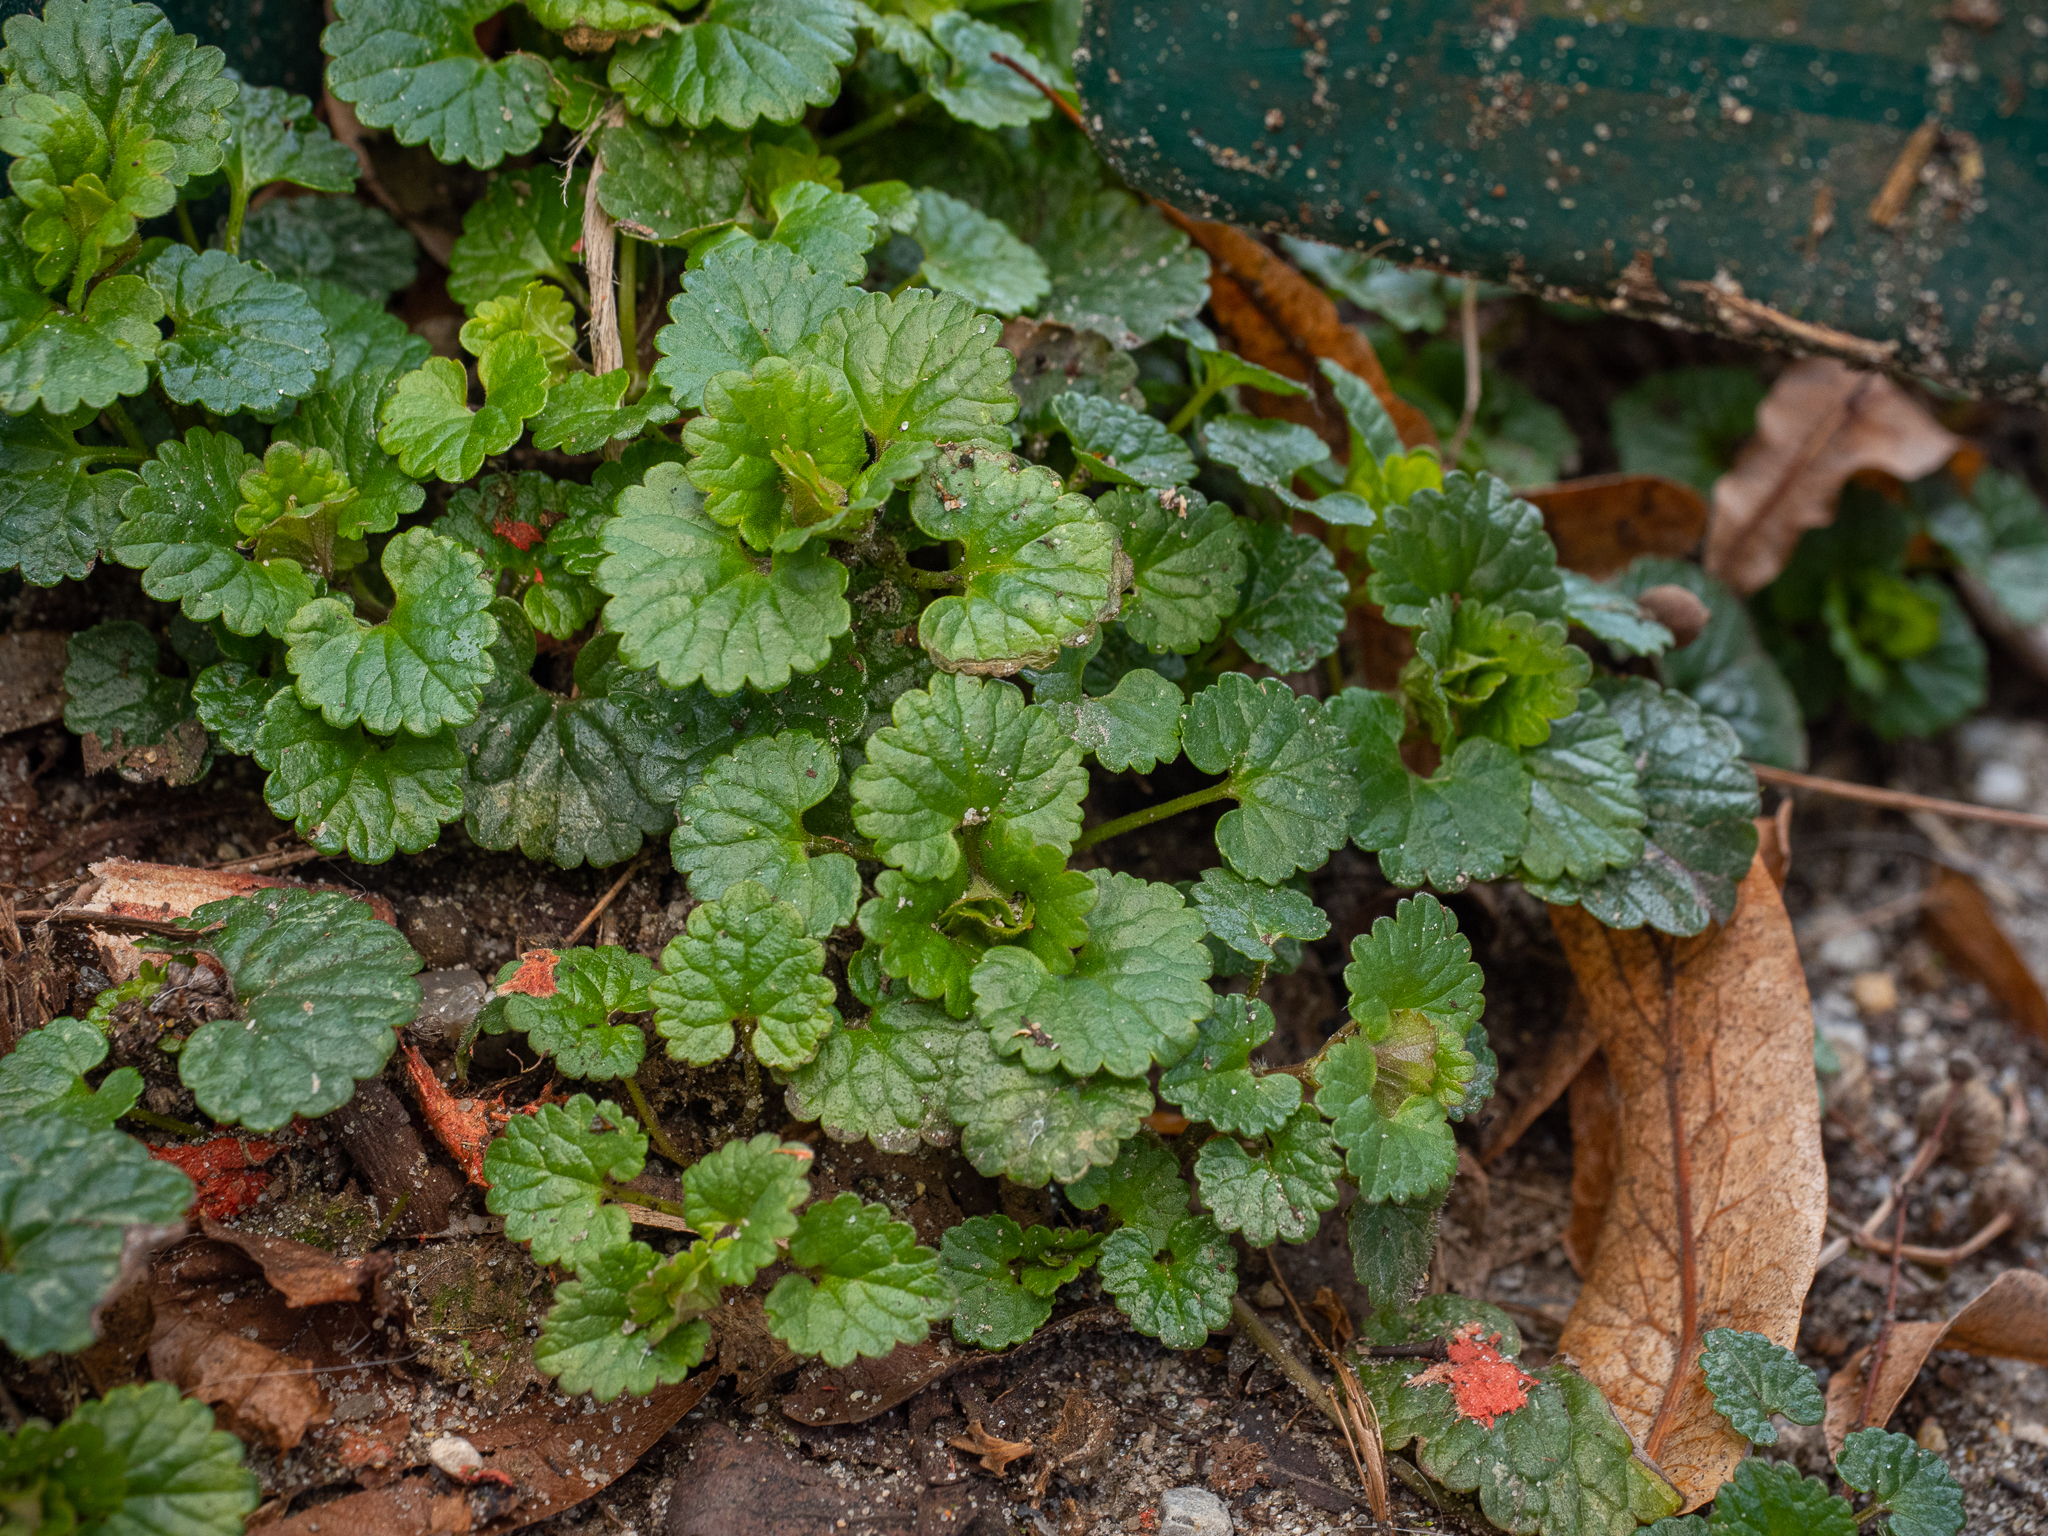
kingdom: Plantae
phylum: Tracheophyta
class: Magnoliopsida
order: Lamiales
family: Lamiaceae
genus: Glechoma
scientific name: Glechoma hederacea
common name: Ground ivy
